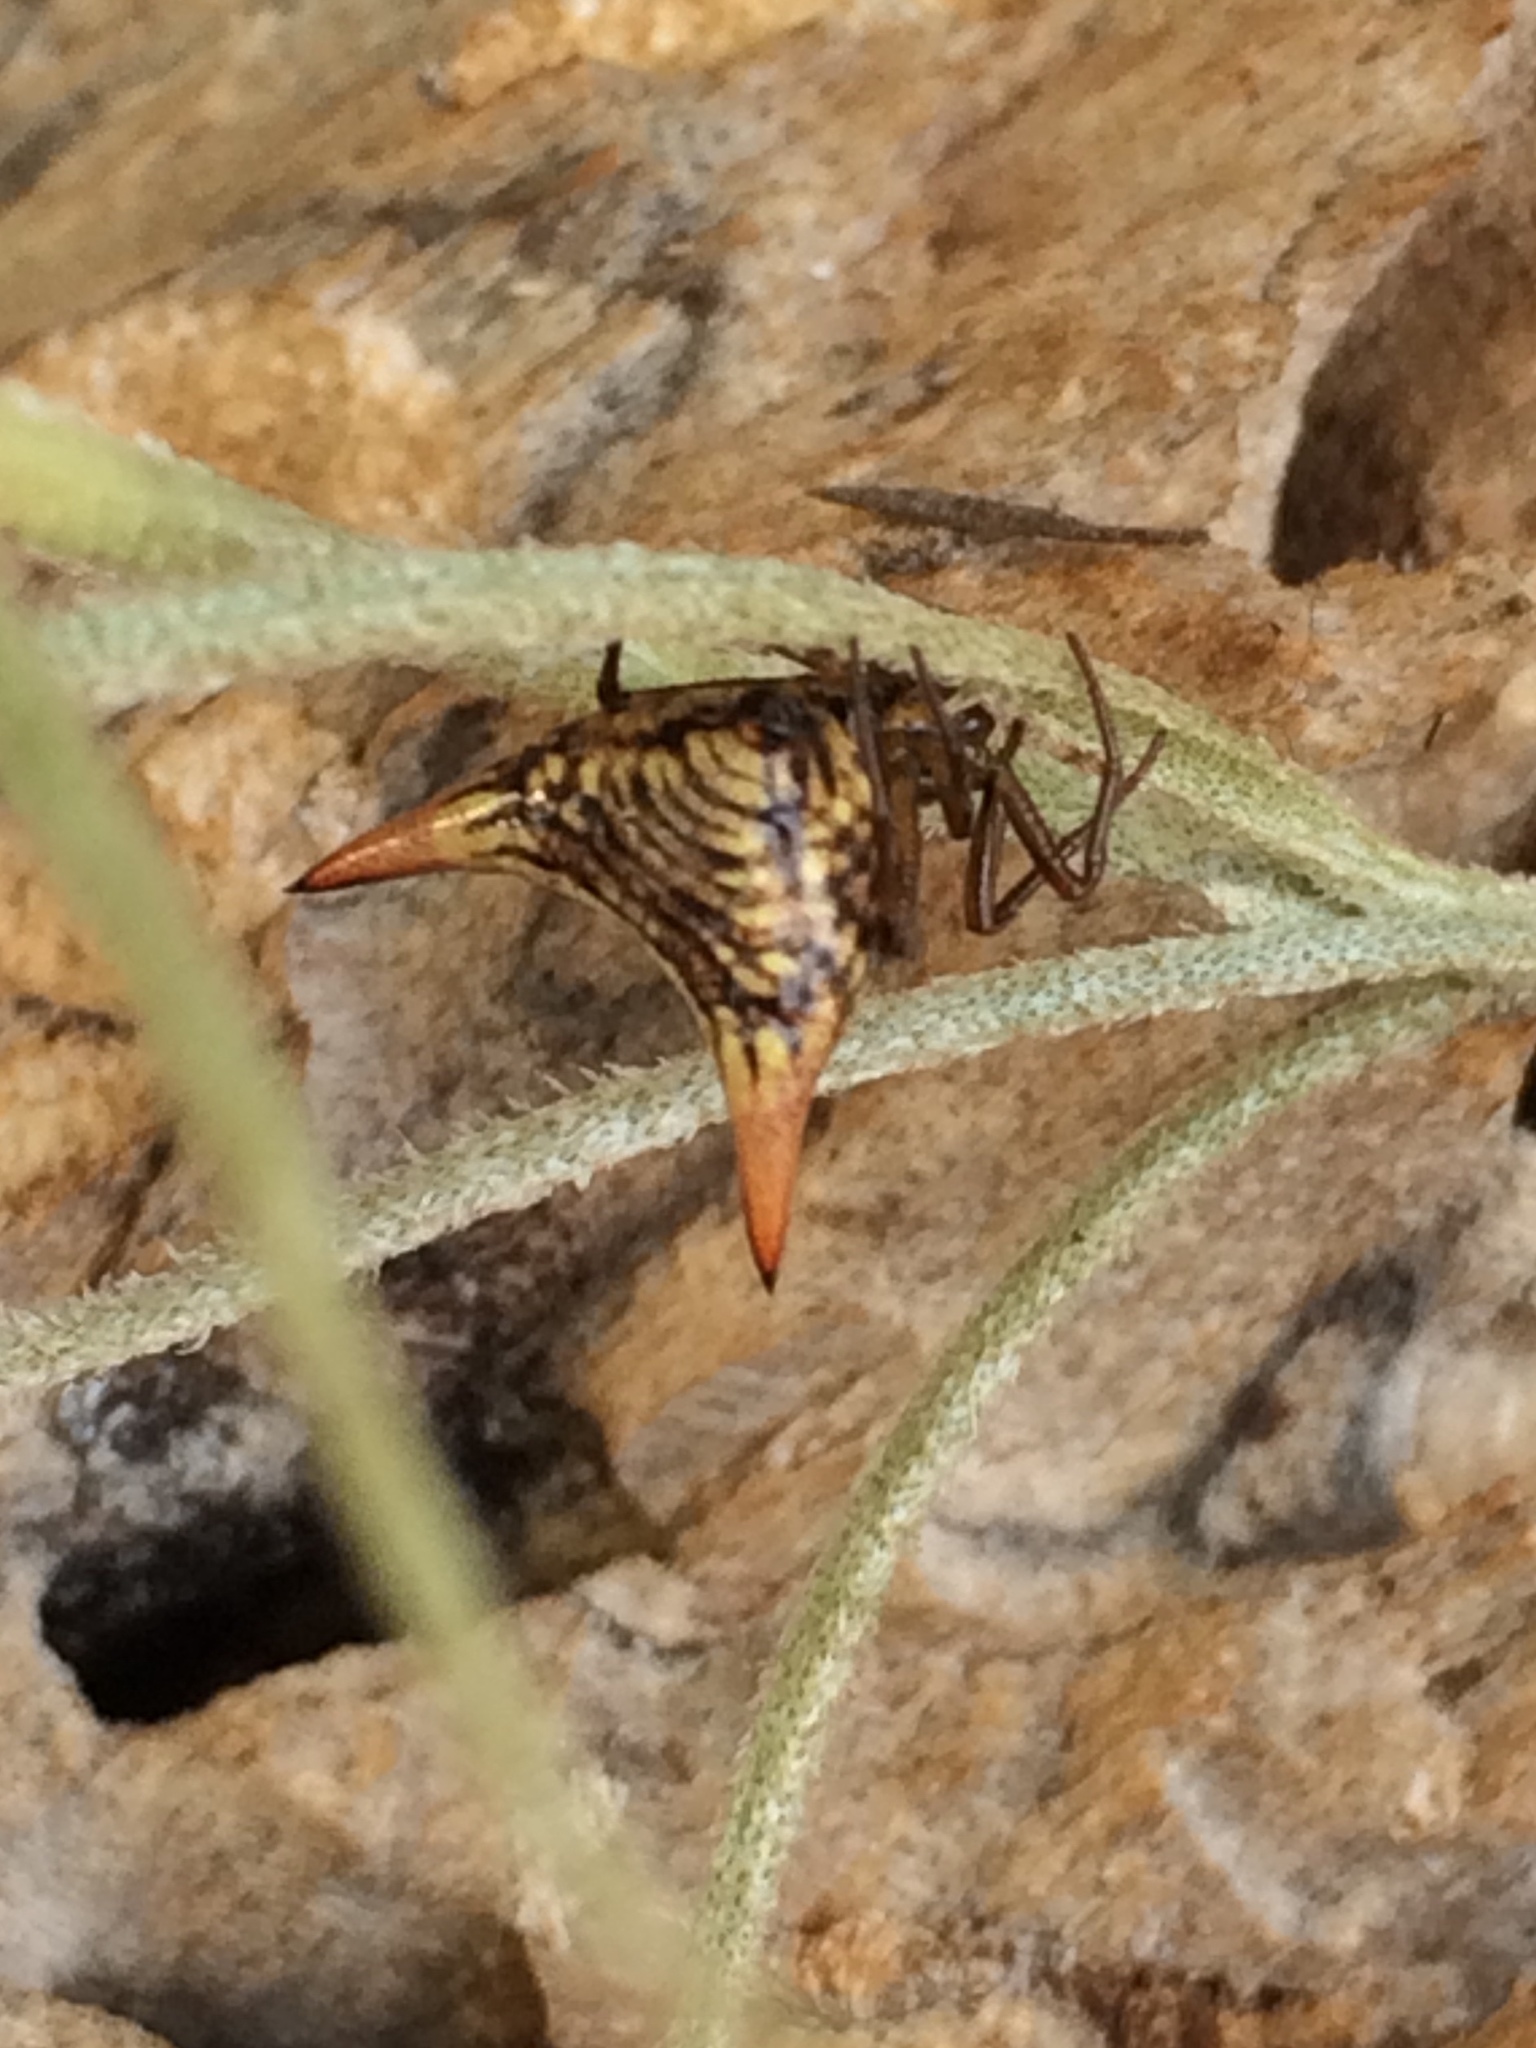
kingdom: Animalia
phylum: Arthropoda
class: Arachnida
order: Araneae
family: Araneidae
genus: Micrathena
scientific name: Micrathena peregrinatorum
